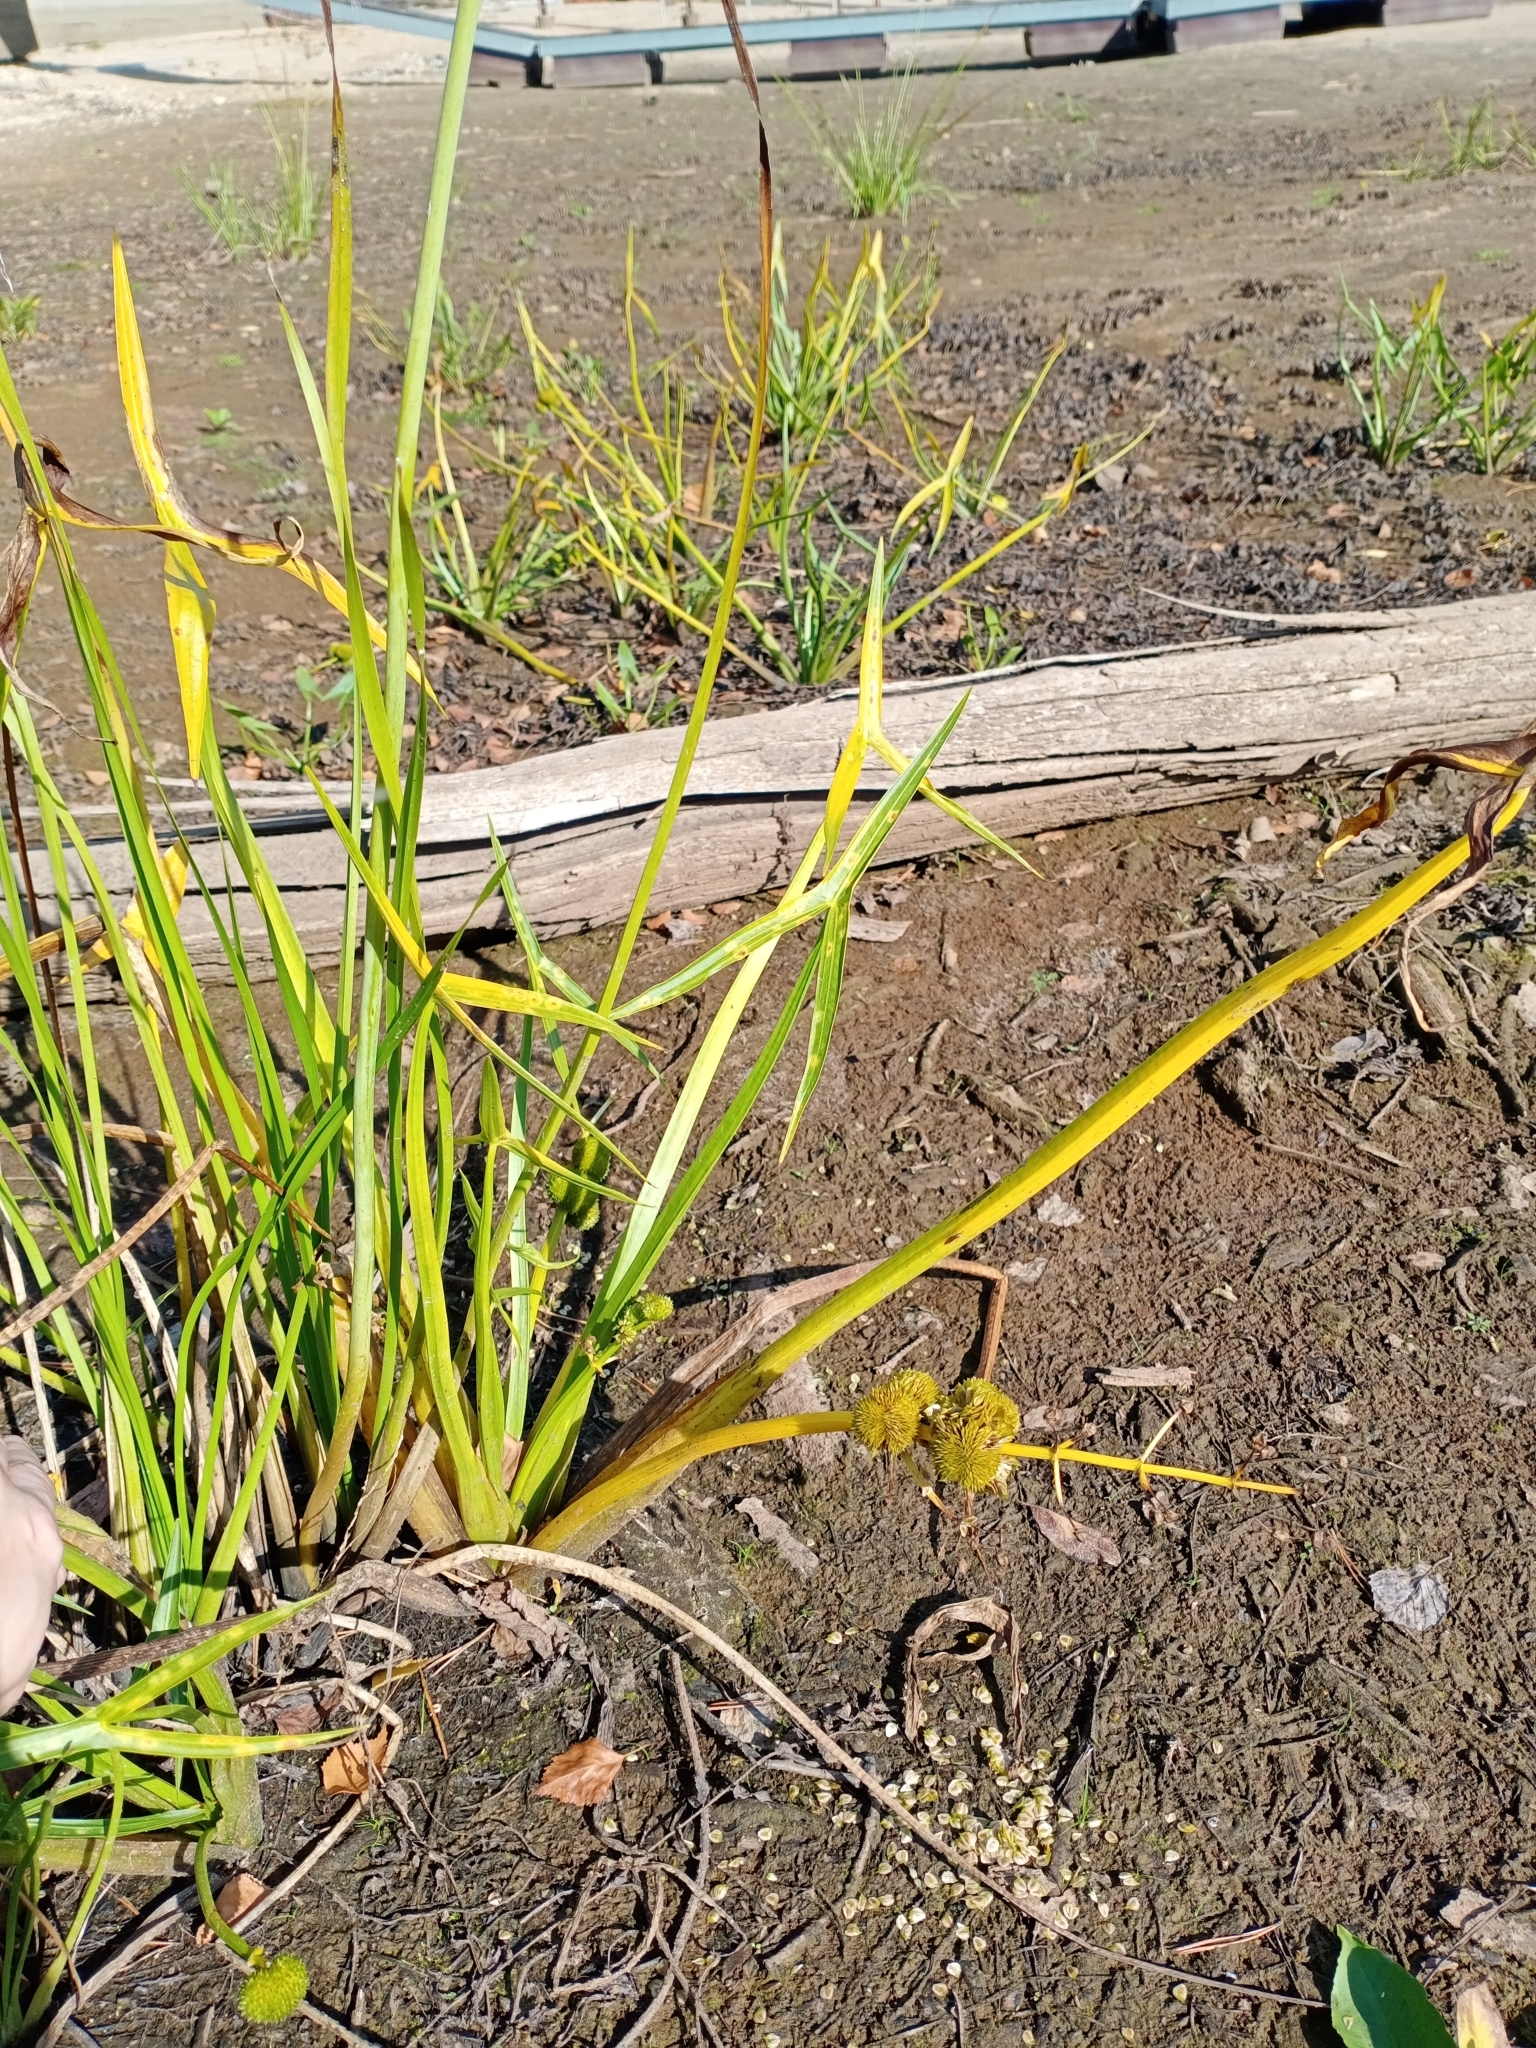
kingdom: Plantae
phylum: Tracheophyta
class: Liliopsida
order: Alismatales
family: Alismataceae
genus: Sagittaria
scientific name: Sagittaria sagittifolia
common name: Arrowhead
